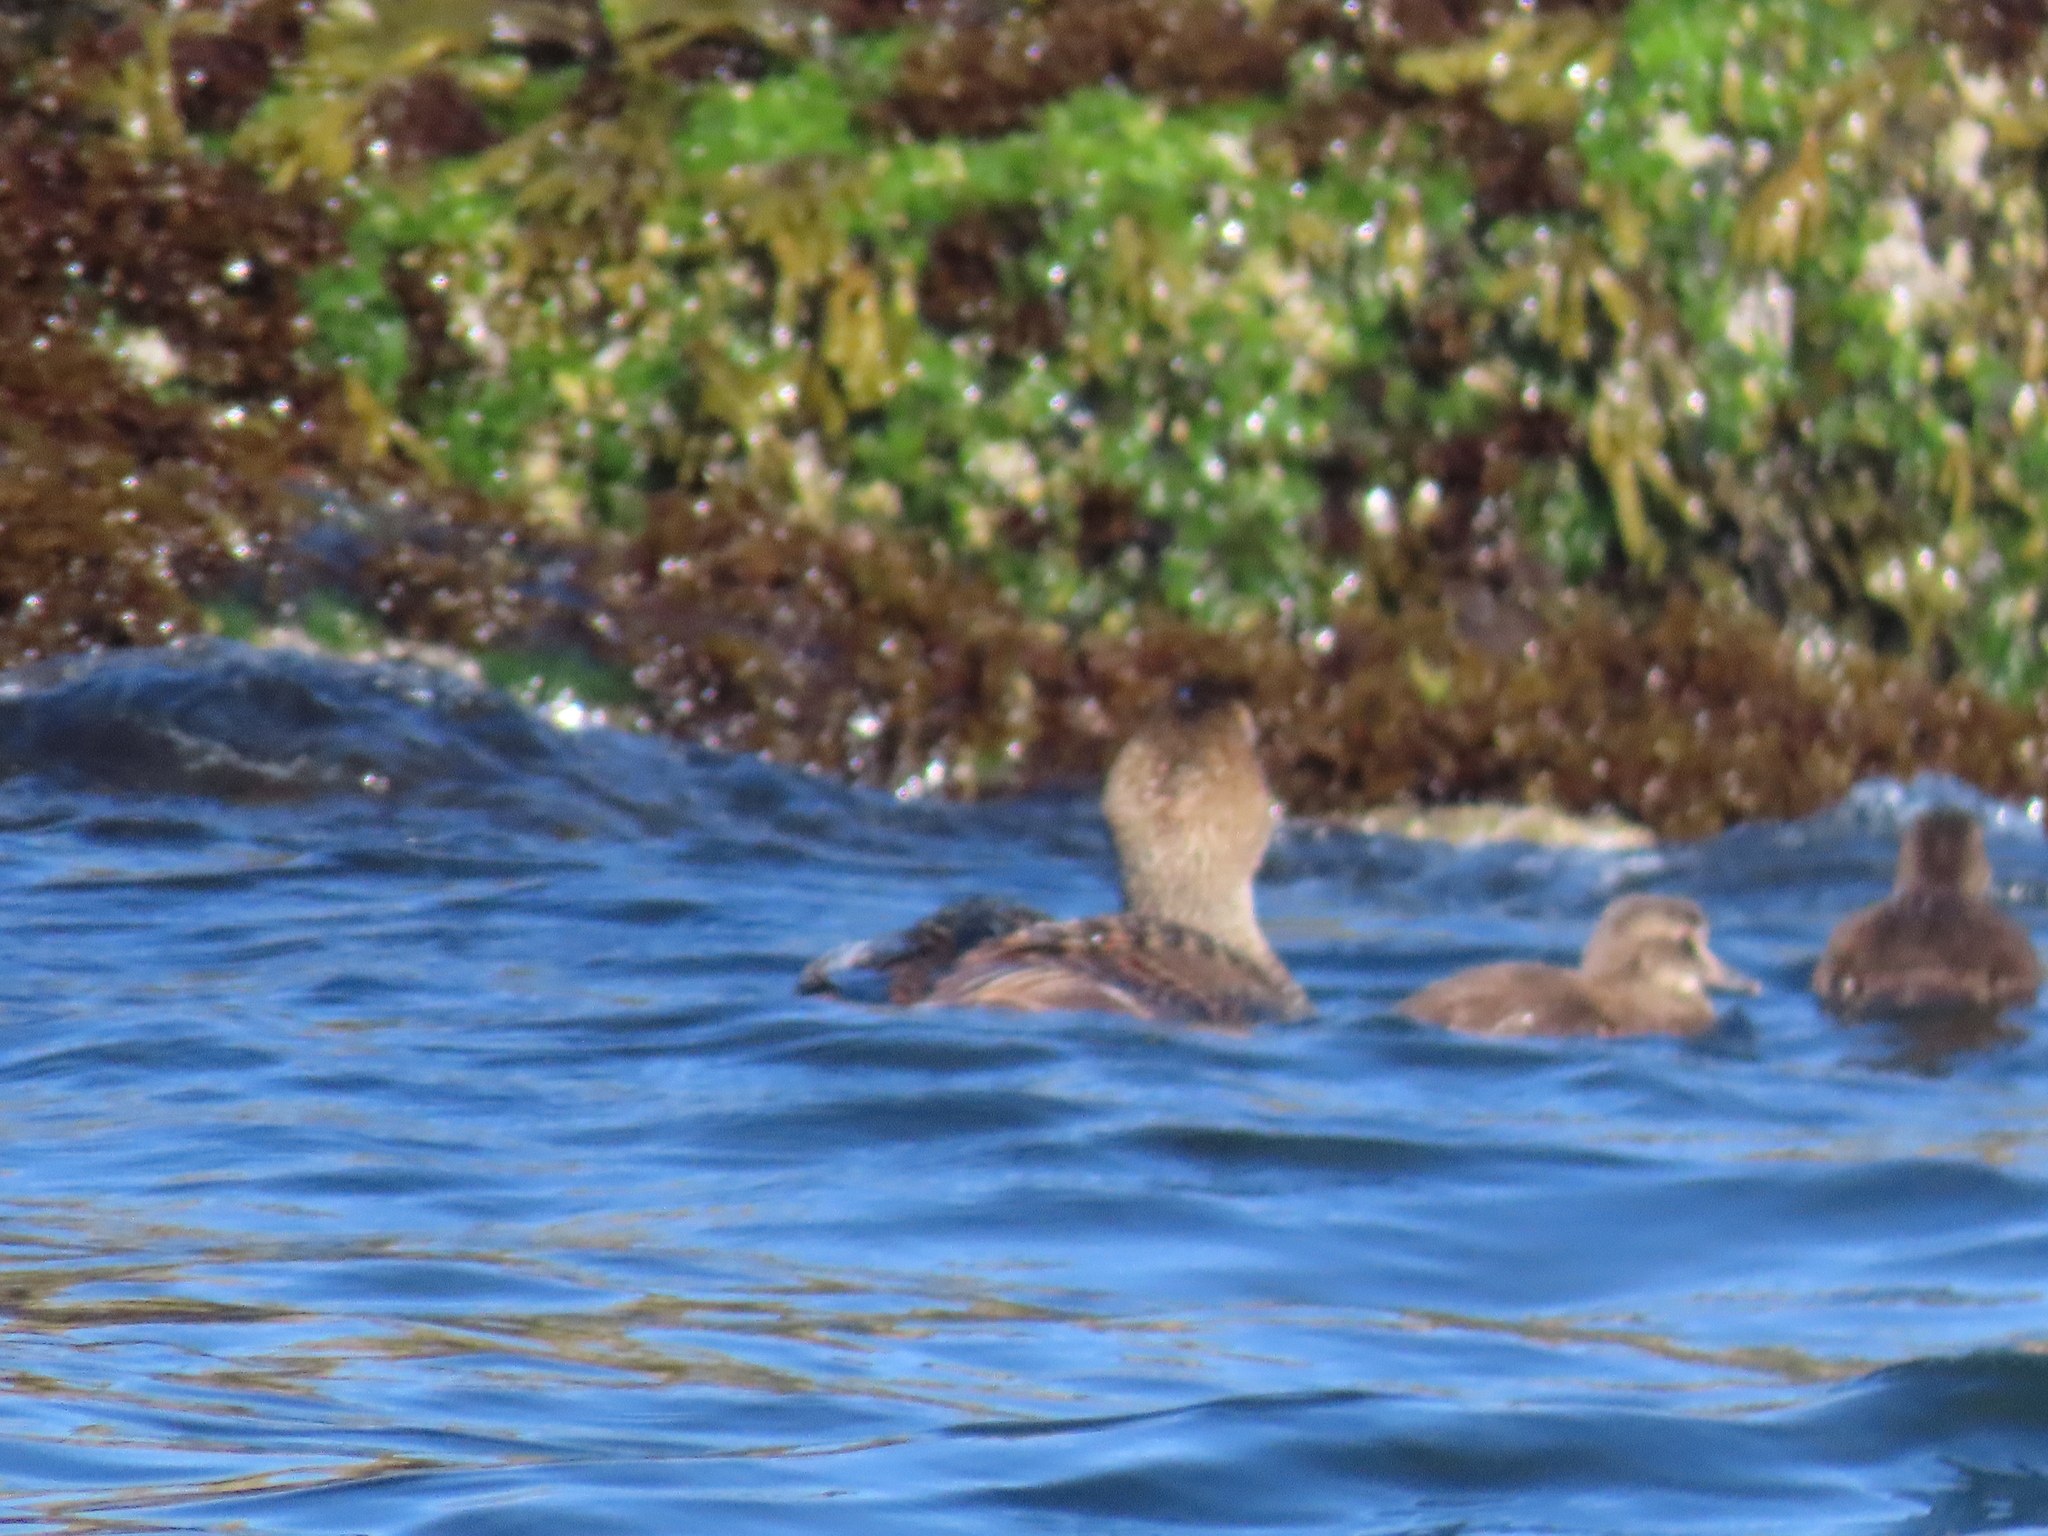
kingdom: Animalia
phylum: Chordata
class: Aves
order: Anseriformes
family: Anatidae
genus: Somateria
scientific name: Somateria mollissima
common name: Common eider
